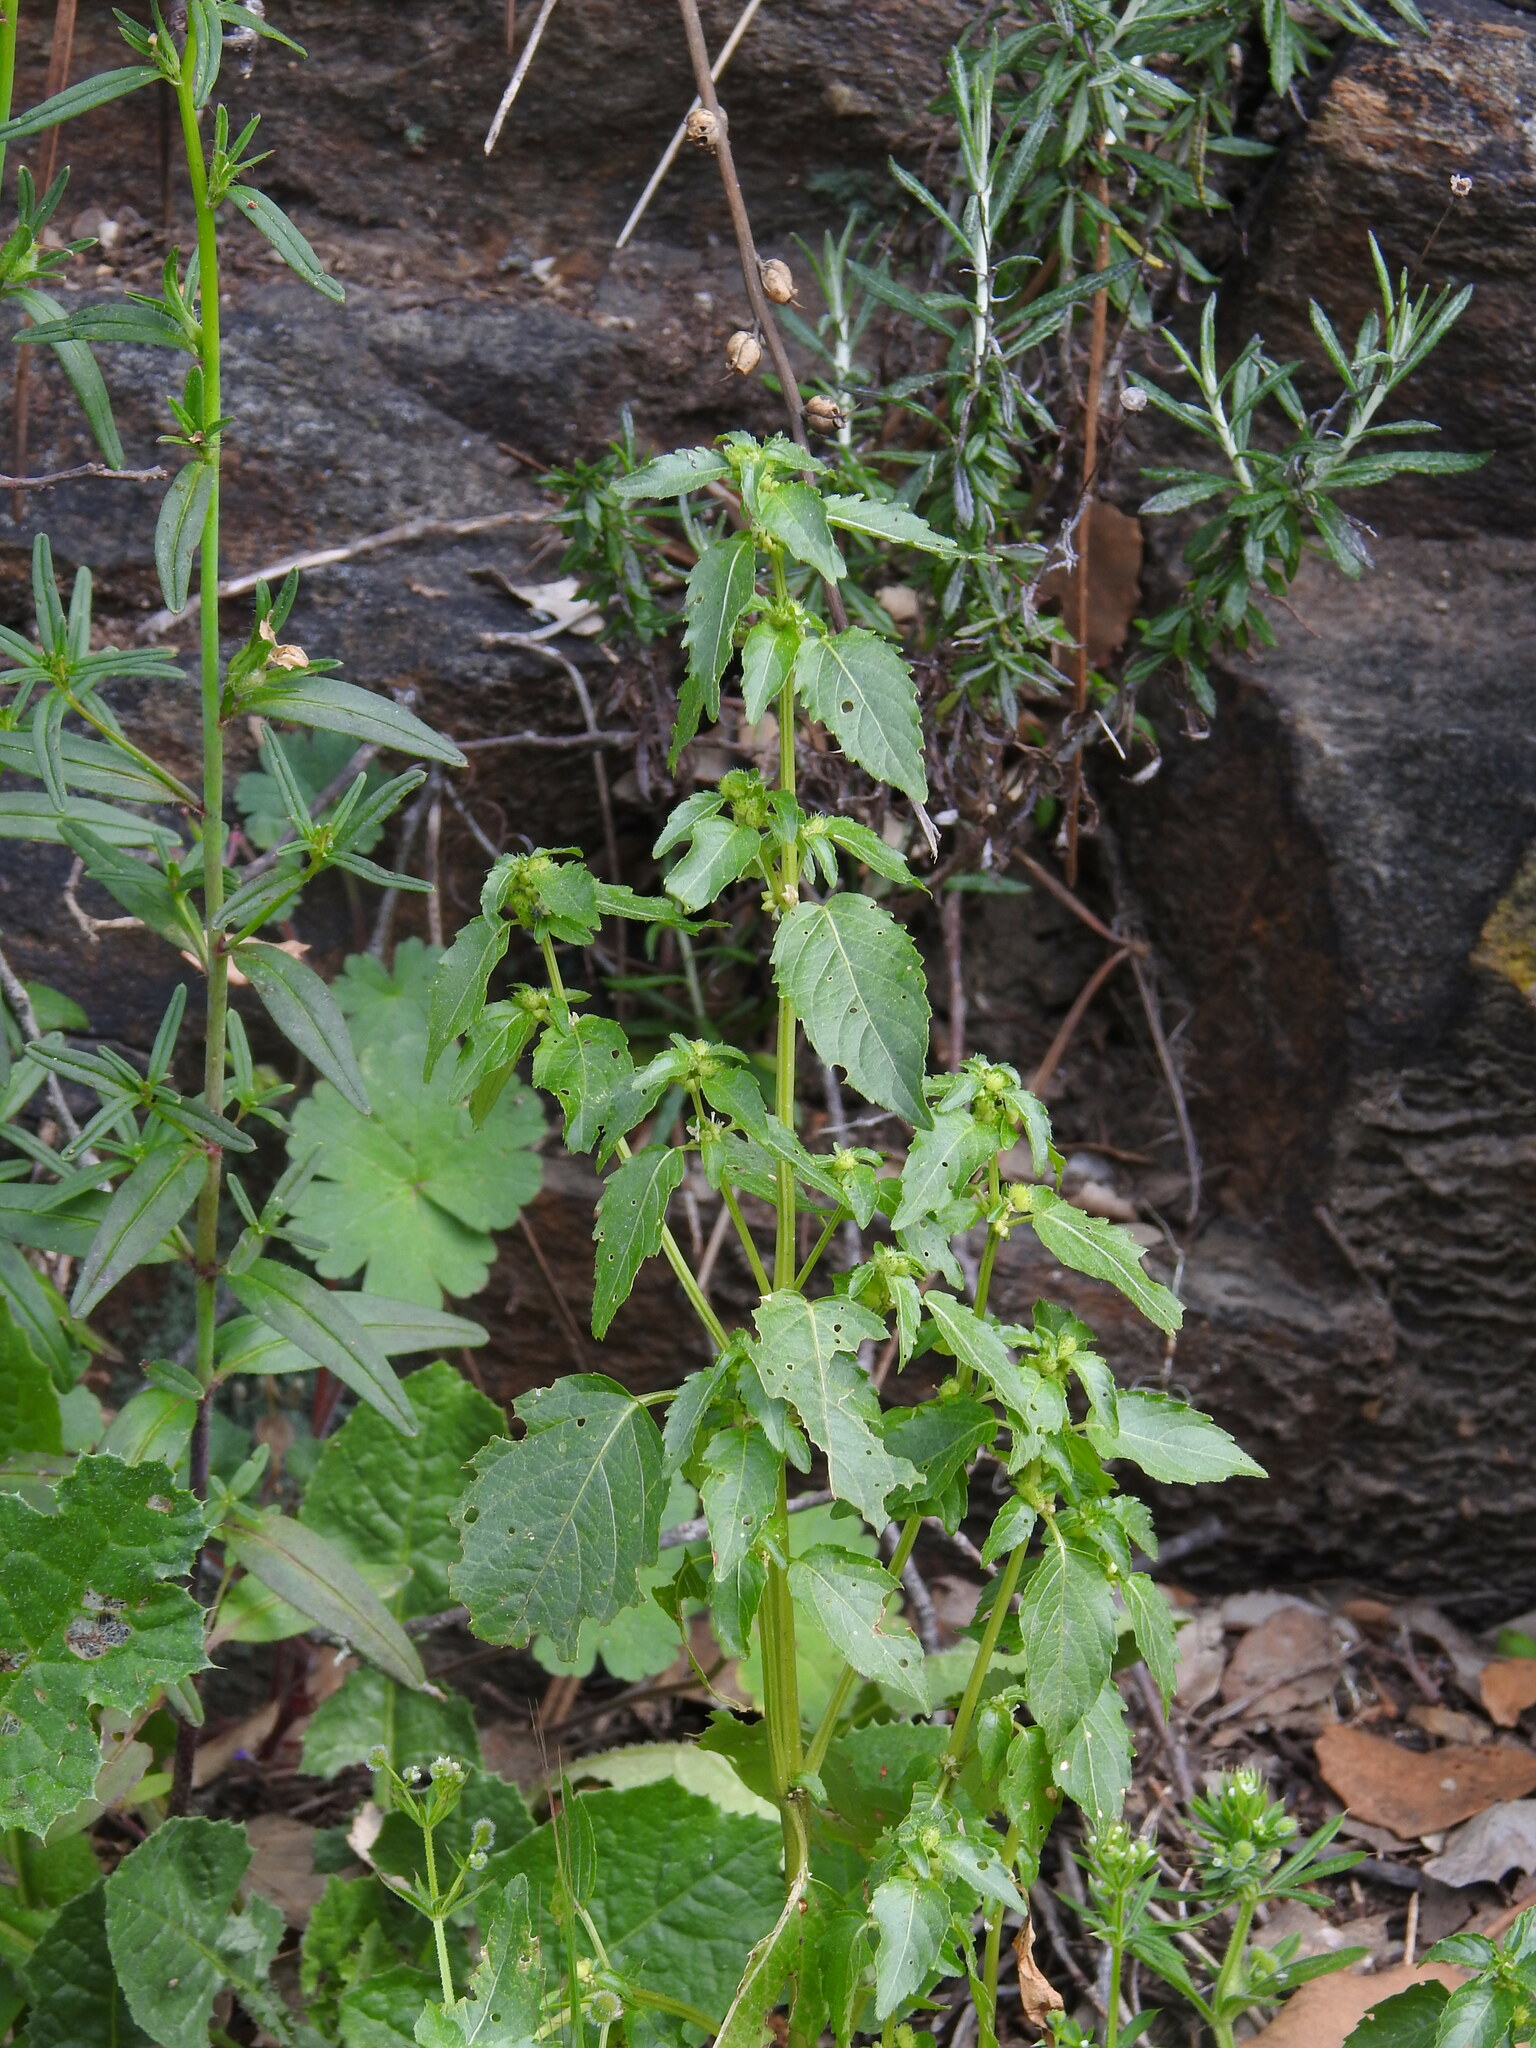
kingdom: Plantae
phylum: Tracheophyta
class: Magnoliopsida
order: Malpighiales
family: Euphorbiaceae
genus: Mercurialis
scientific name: Mercurialis annua
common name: Annual mercury
